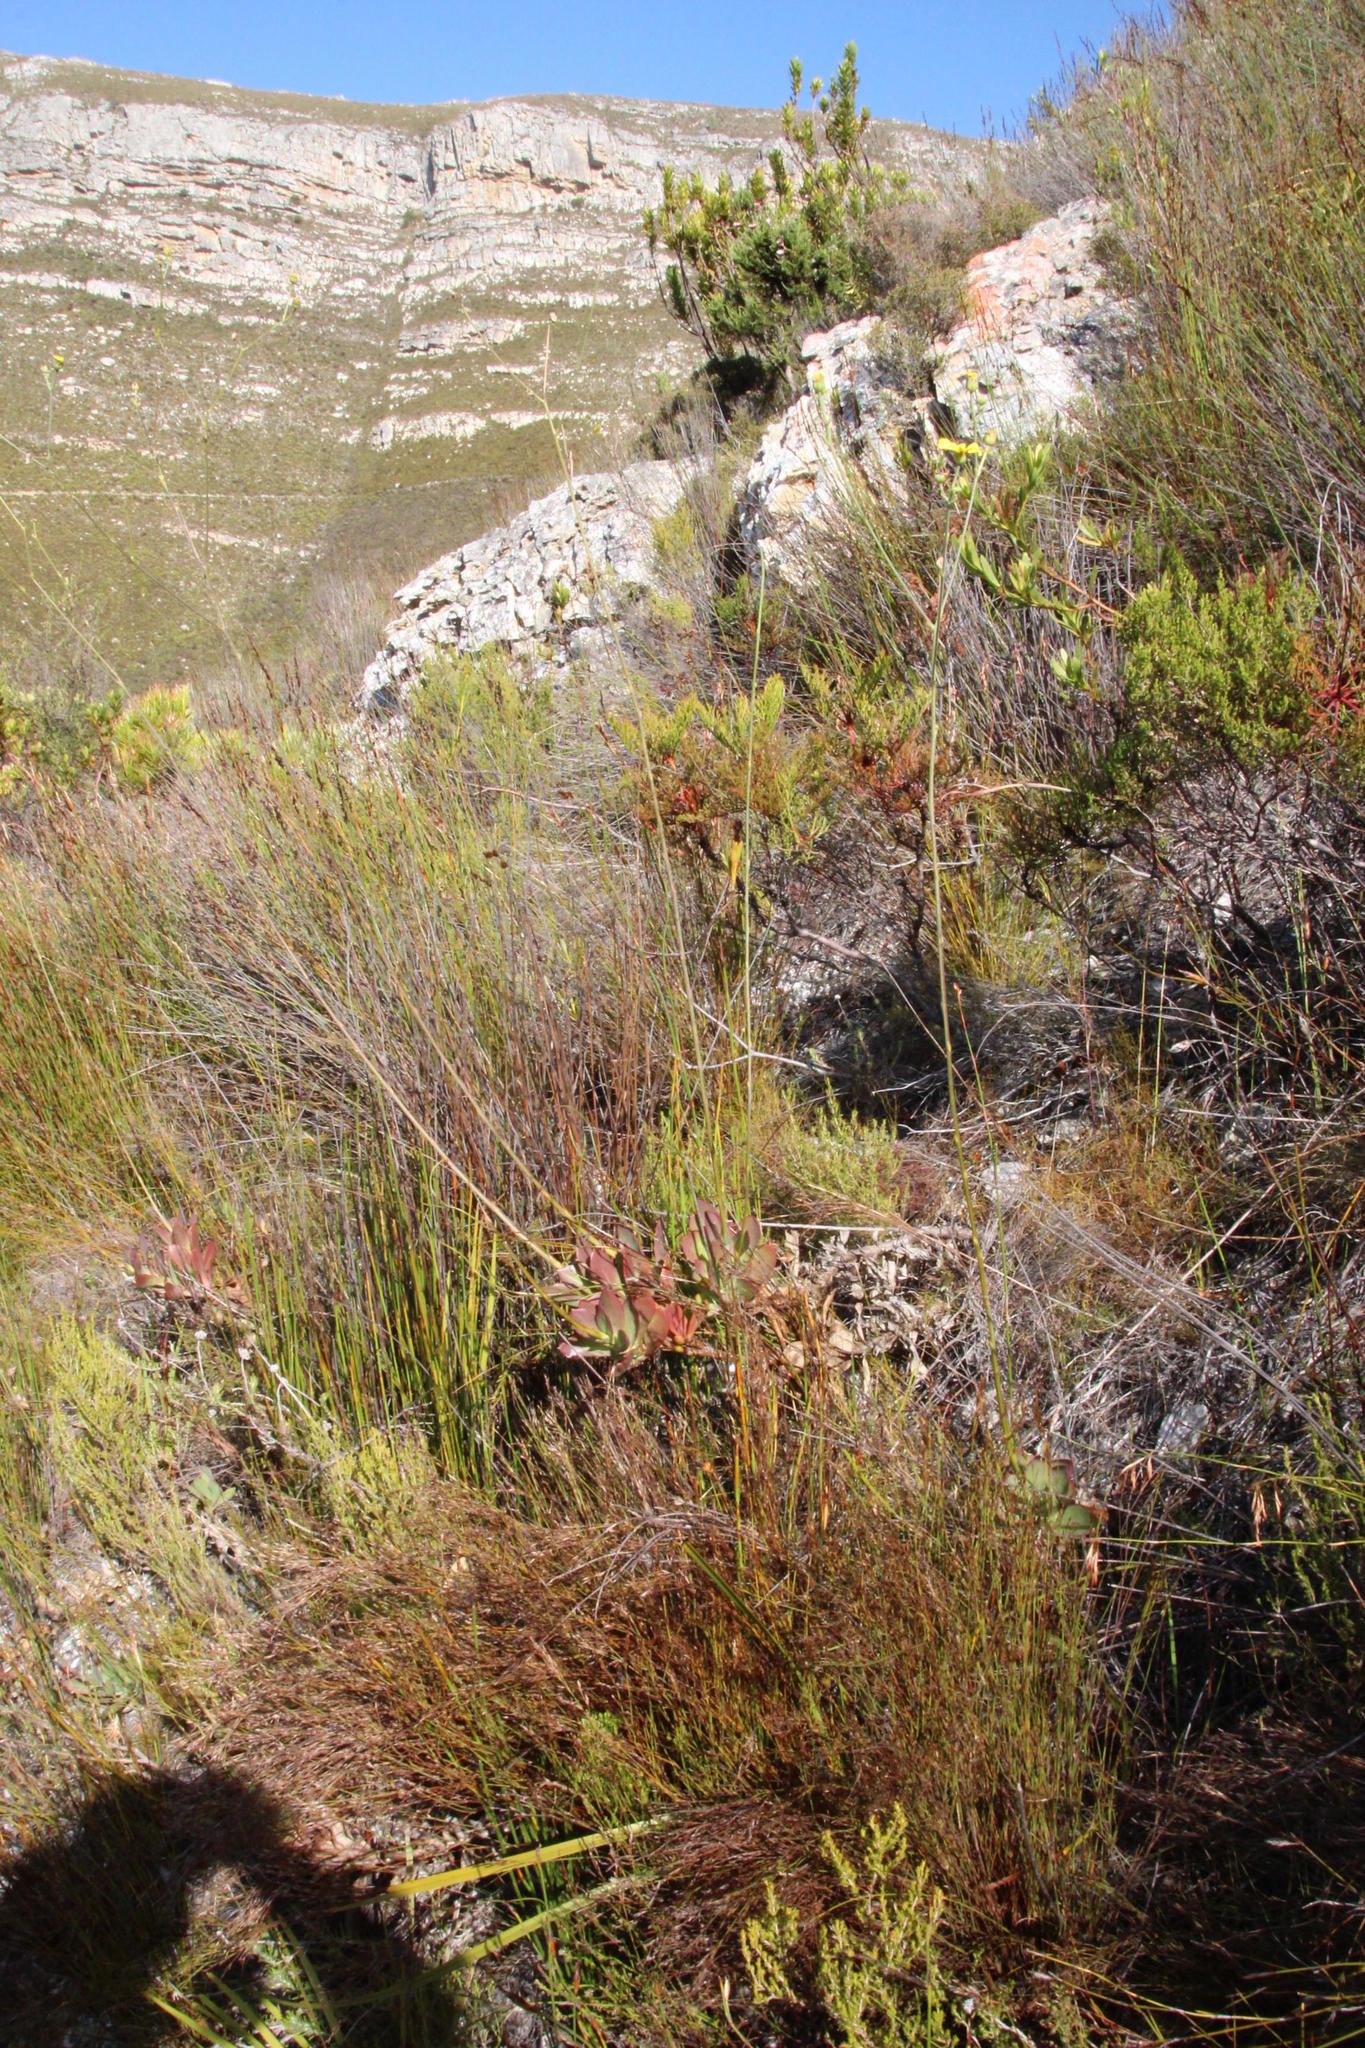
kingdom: Plantae
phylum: Tracheophyta
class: Magnoliopsida
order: Asterales
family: Asteraceae
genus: Othonna
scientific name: Othonna quinquedentata
